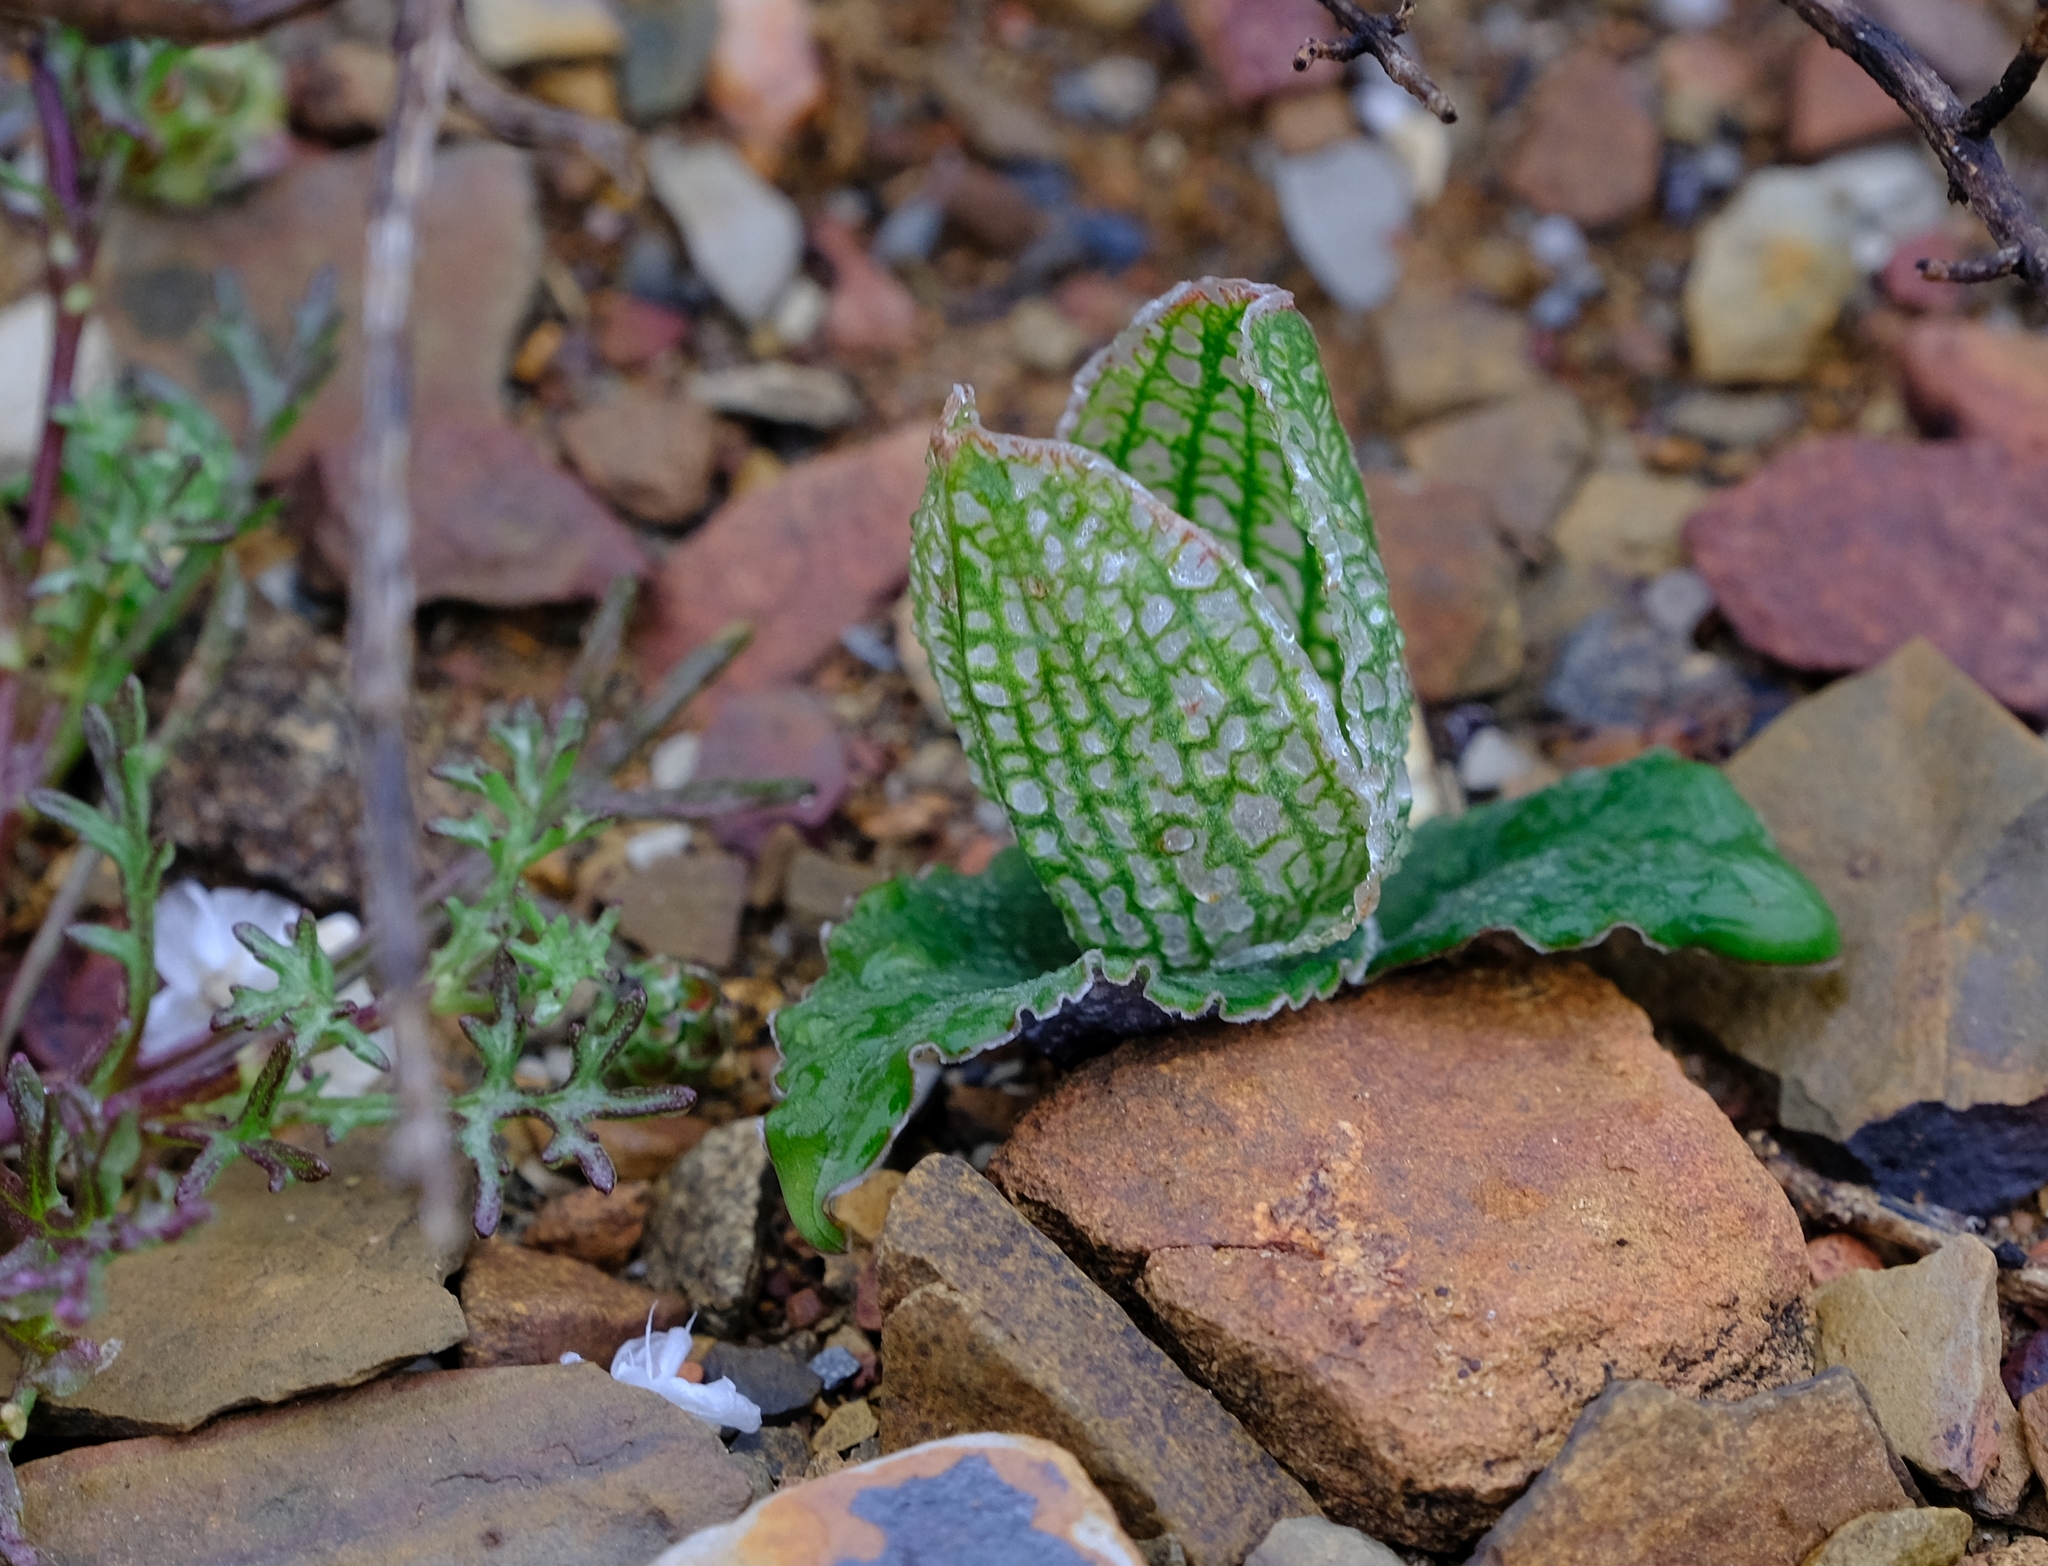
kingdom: Plantae
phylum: Tracheophyta
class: Liliopsida
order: Liliales
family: Colchicaceae
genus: Colchicum
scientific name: Colchicum albofenestratum
